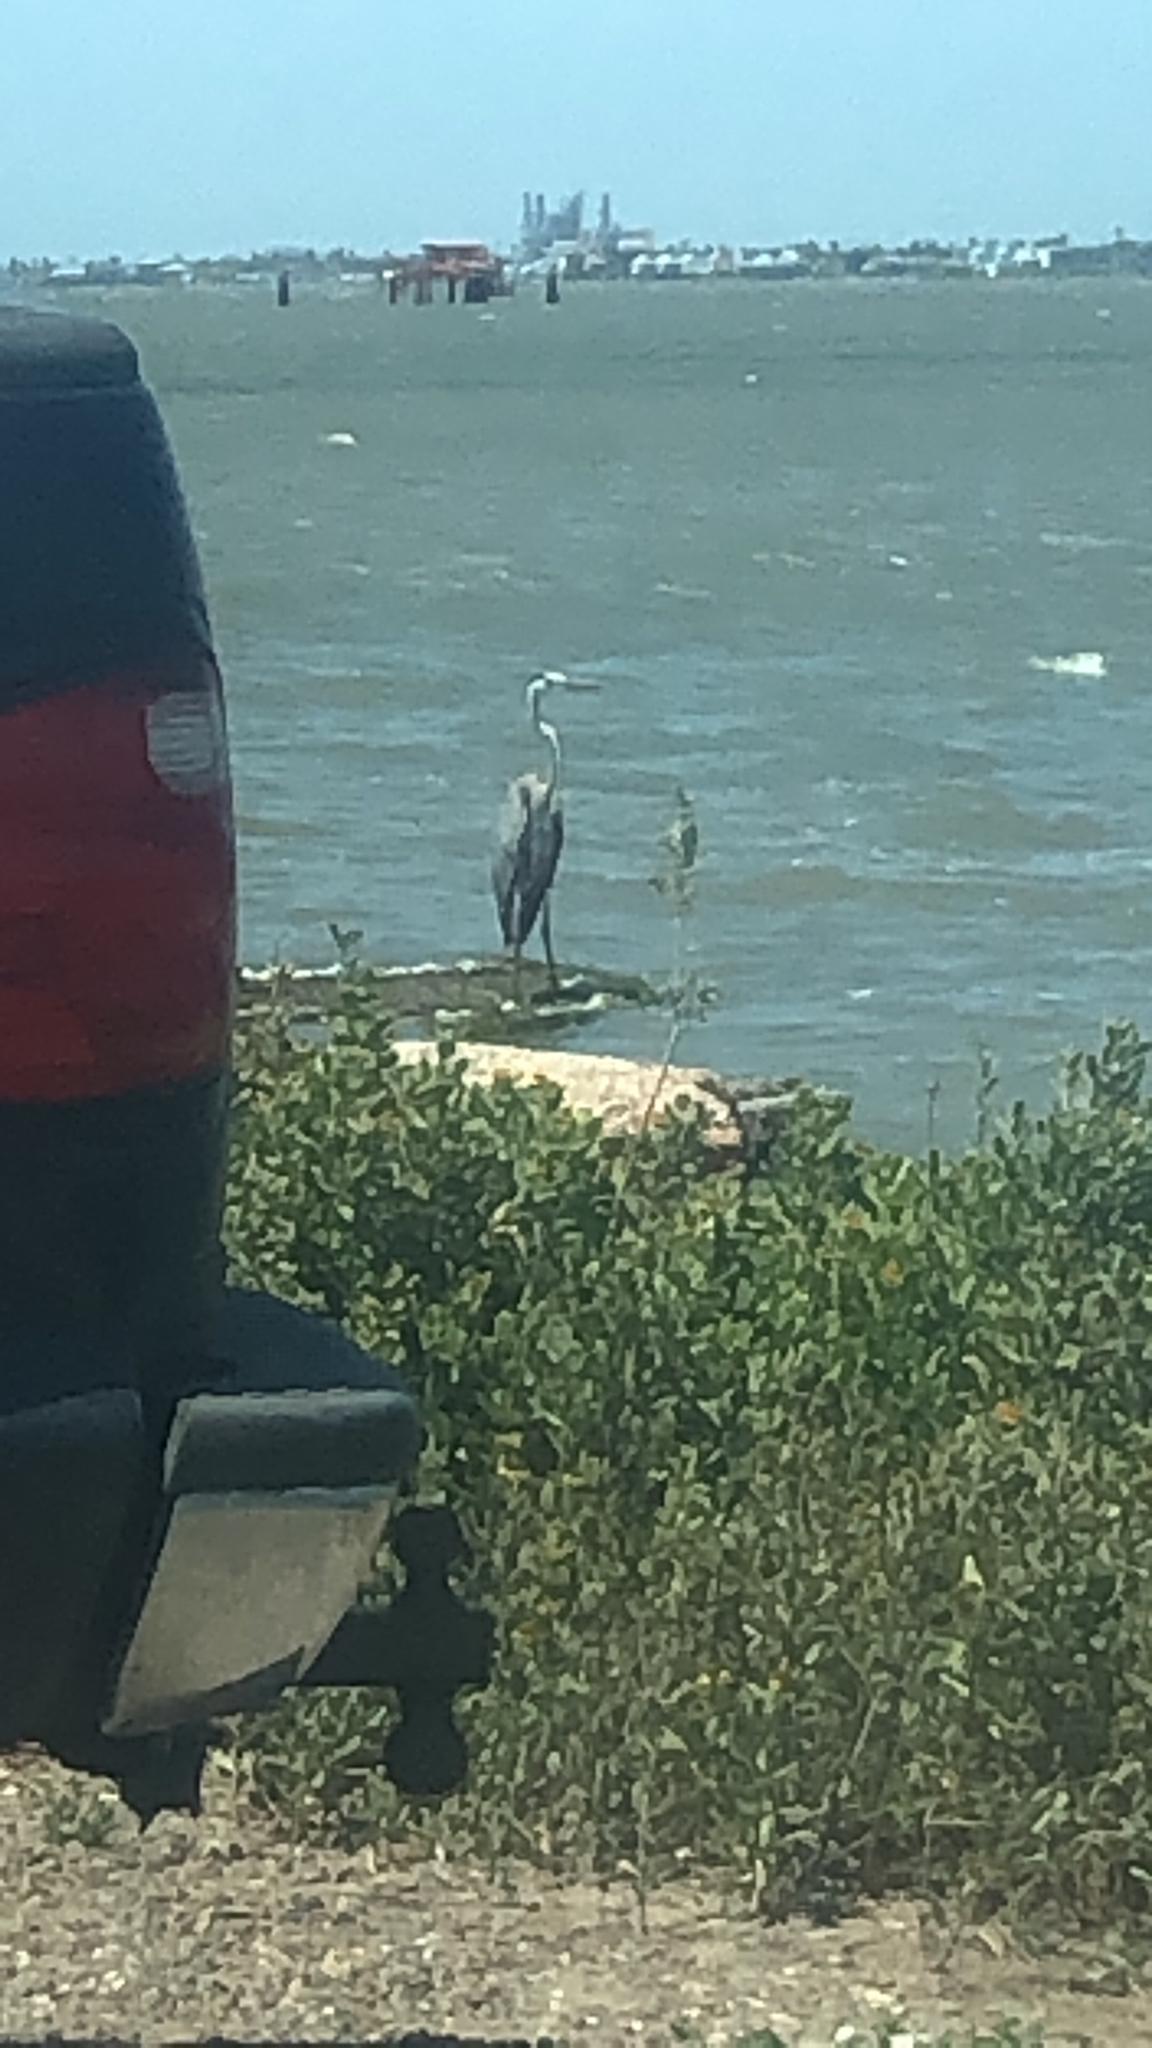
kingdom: Animalia
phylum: Chordata
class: Aves
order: Pelecaniformes
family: Ardeidae
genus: Ardea
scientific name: Ardea herodias
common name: Great blue heron
